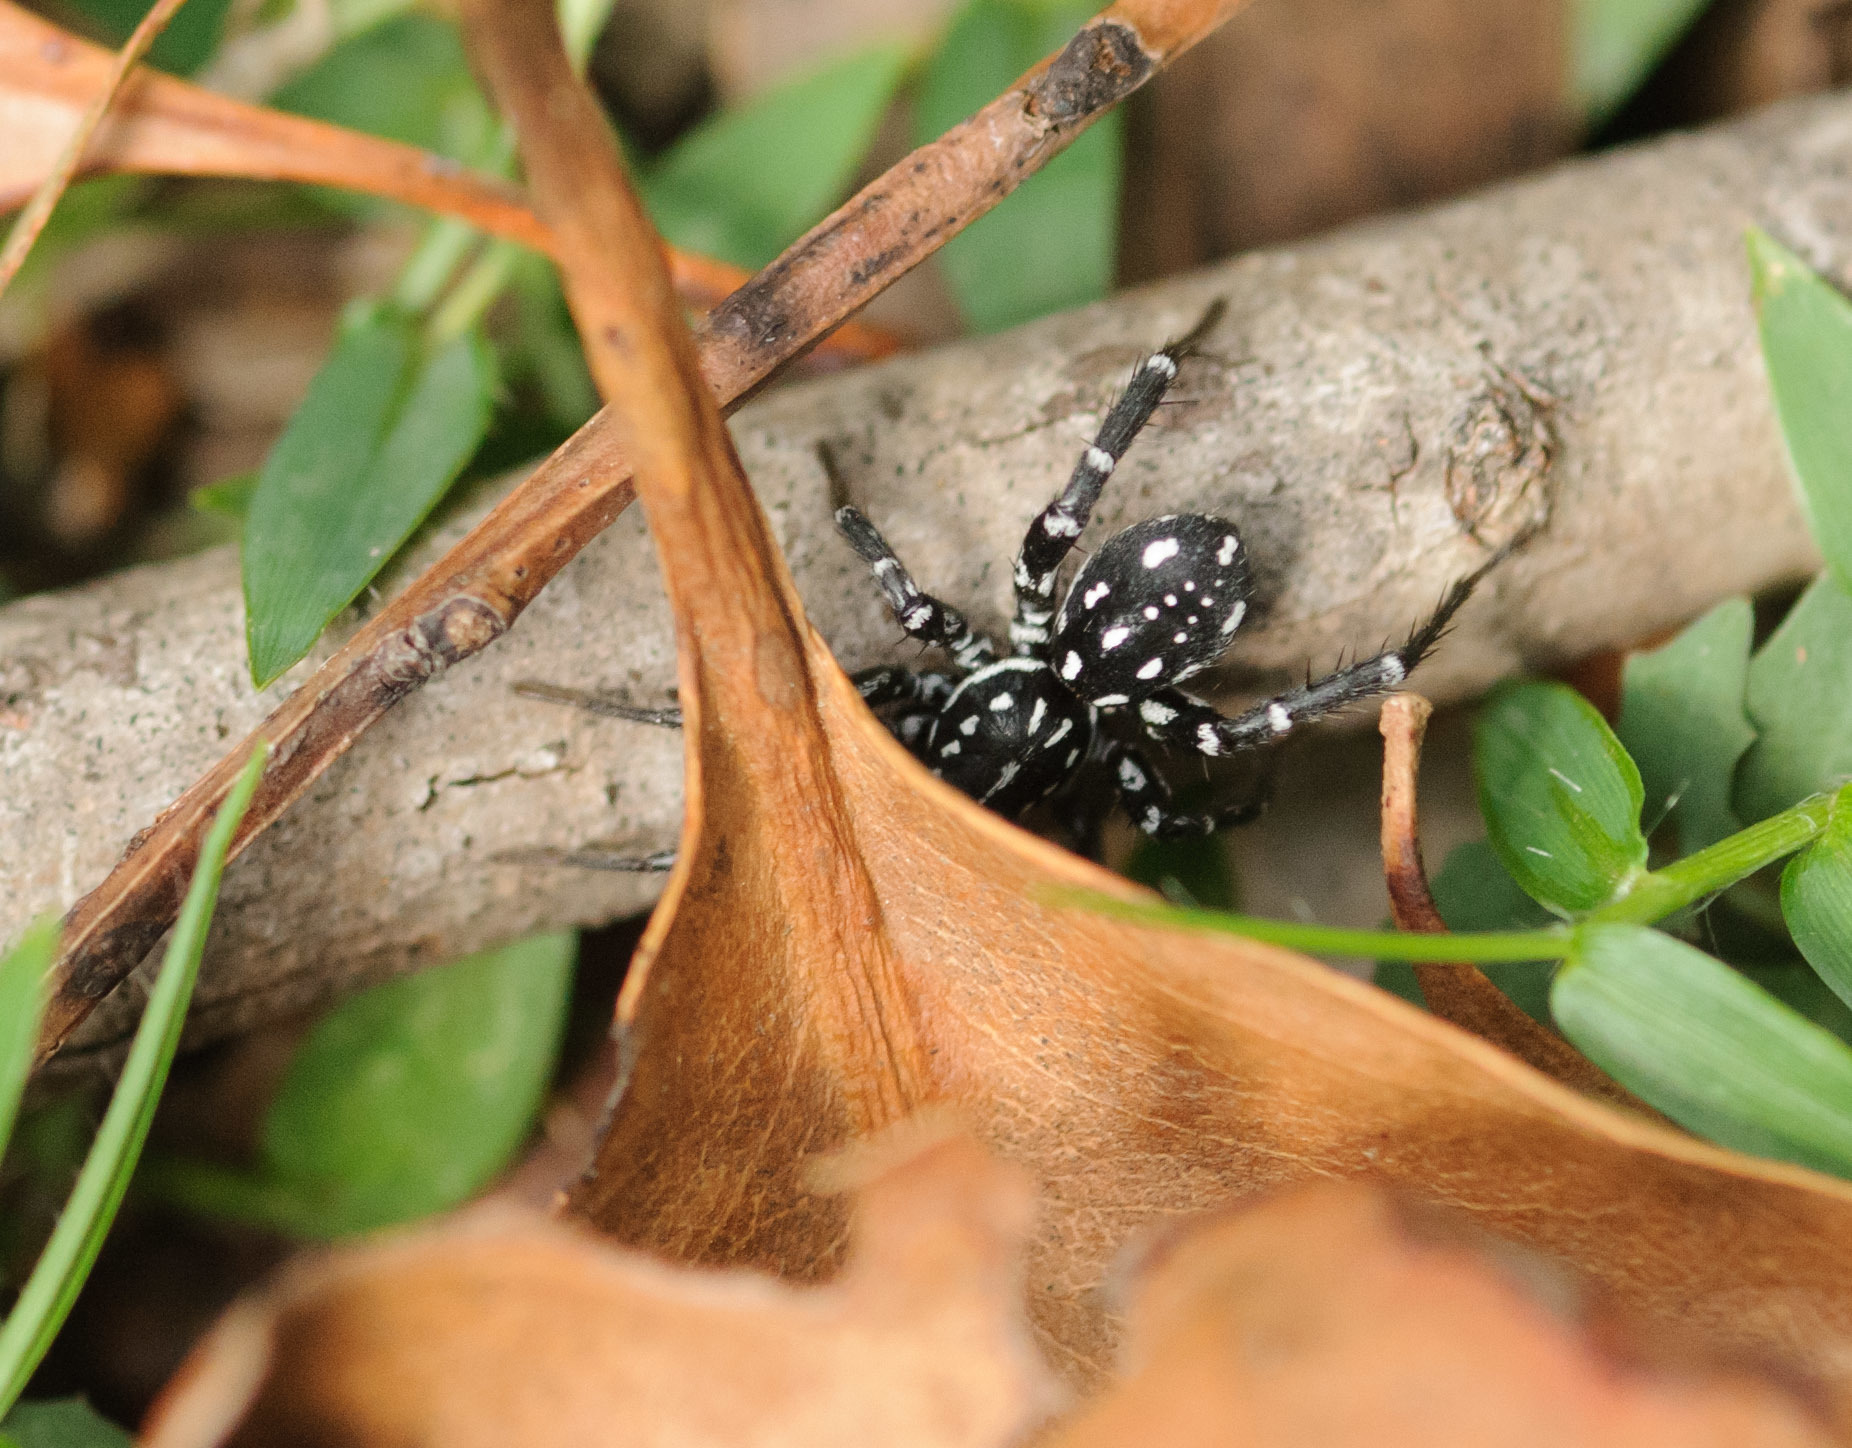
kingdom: Animalia
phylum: Arthropoda
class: Arachnida
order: Araneae
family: Corinnidae
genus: Nyssus
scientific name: Nyssus albopunctatus
